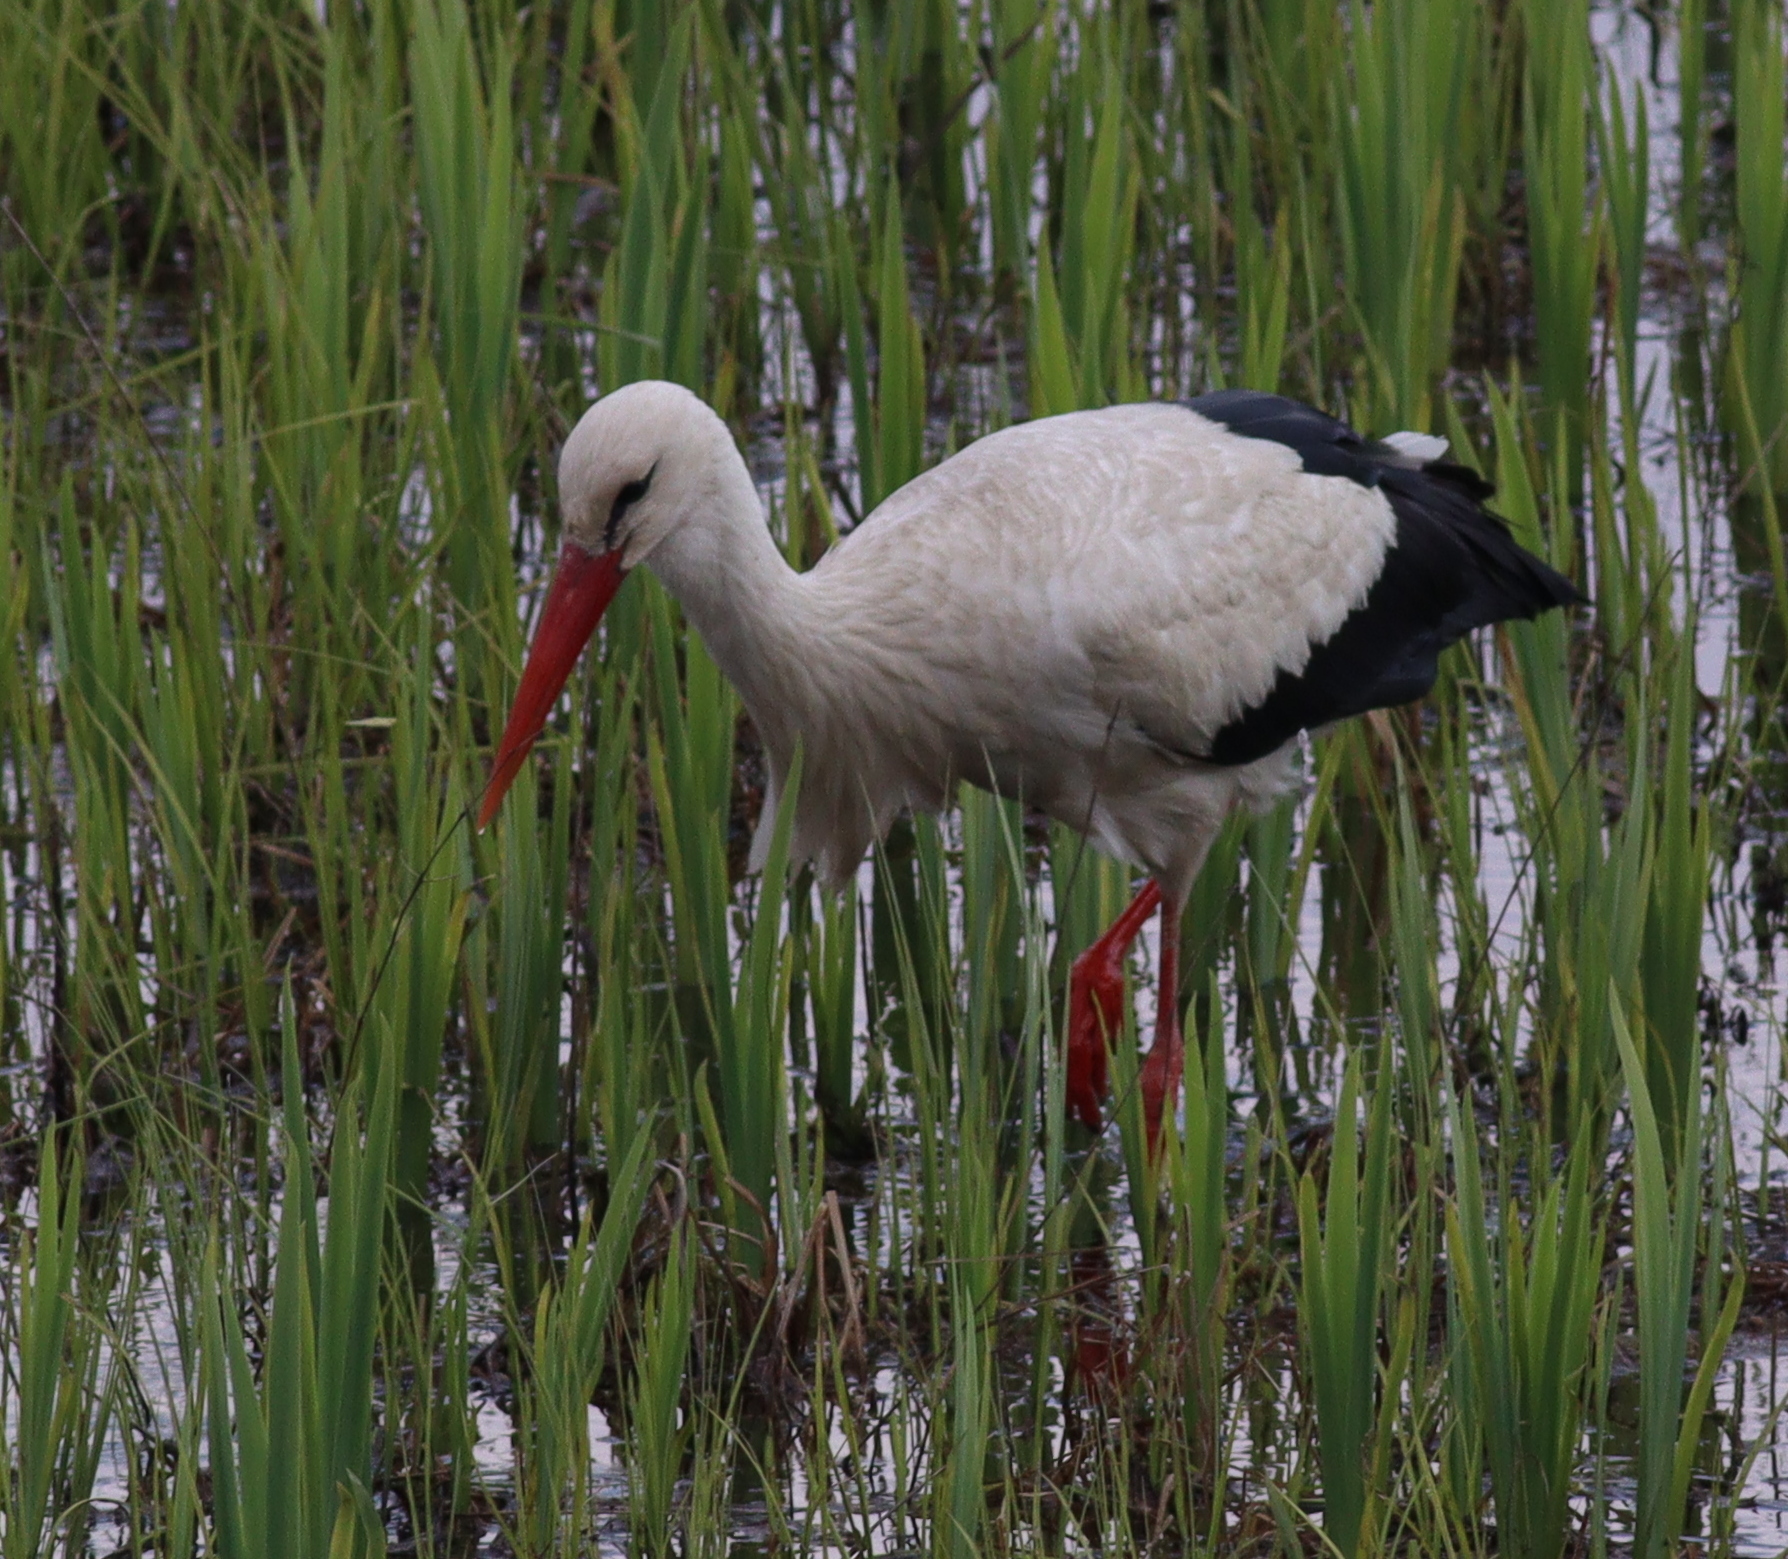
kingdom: Animalia
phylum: Chordata
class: Aves
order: Ciconiiformes
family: Ciconiidae
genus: Ciconia
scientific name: Ciconia ciconia
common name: White stork
